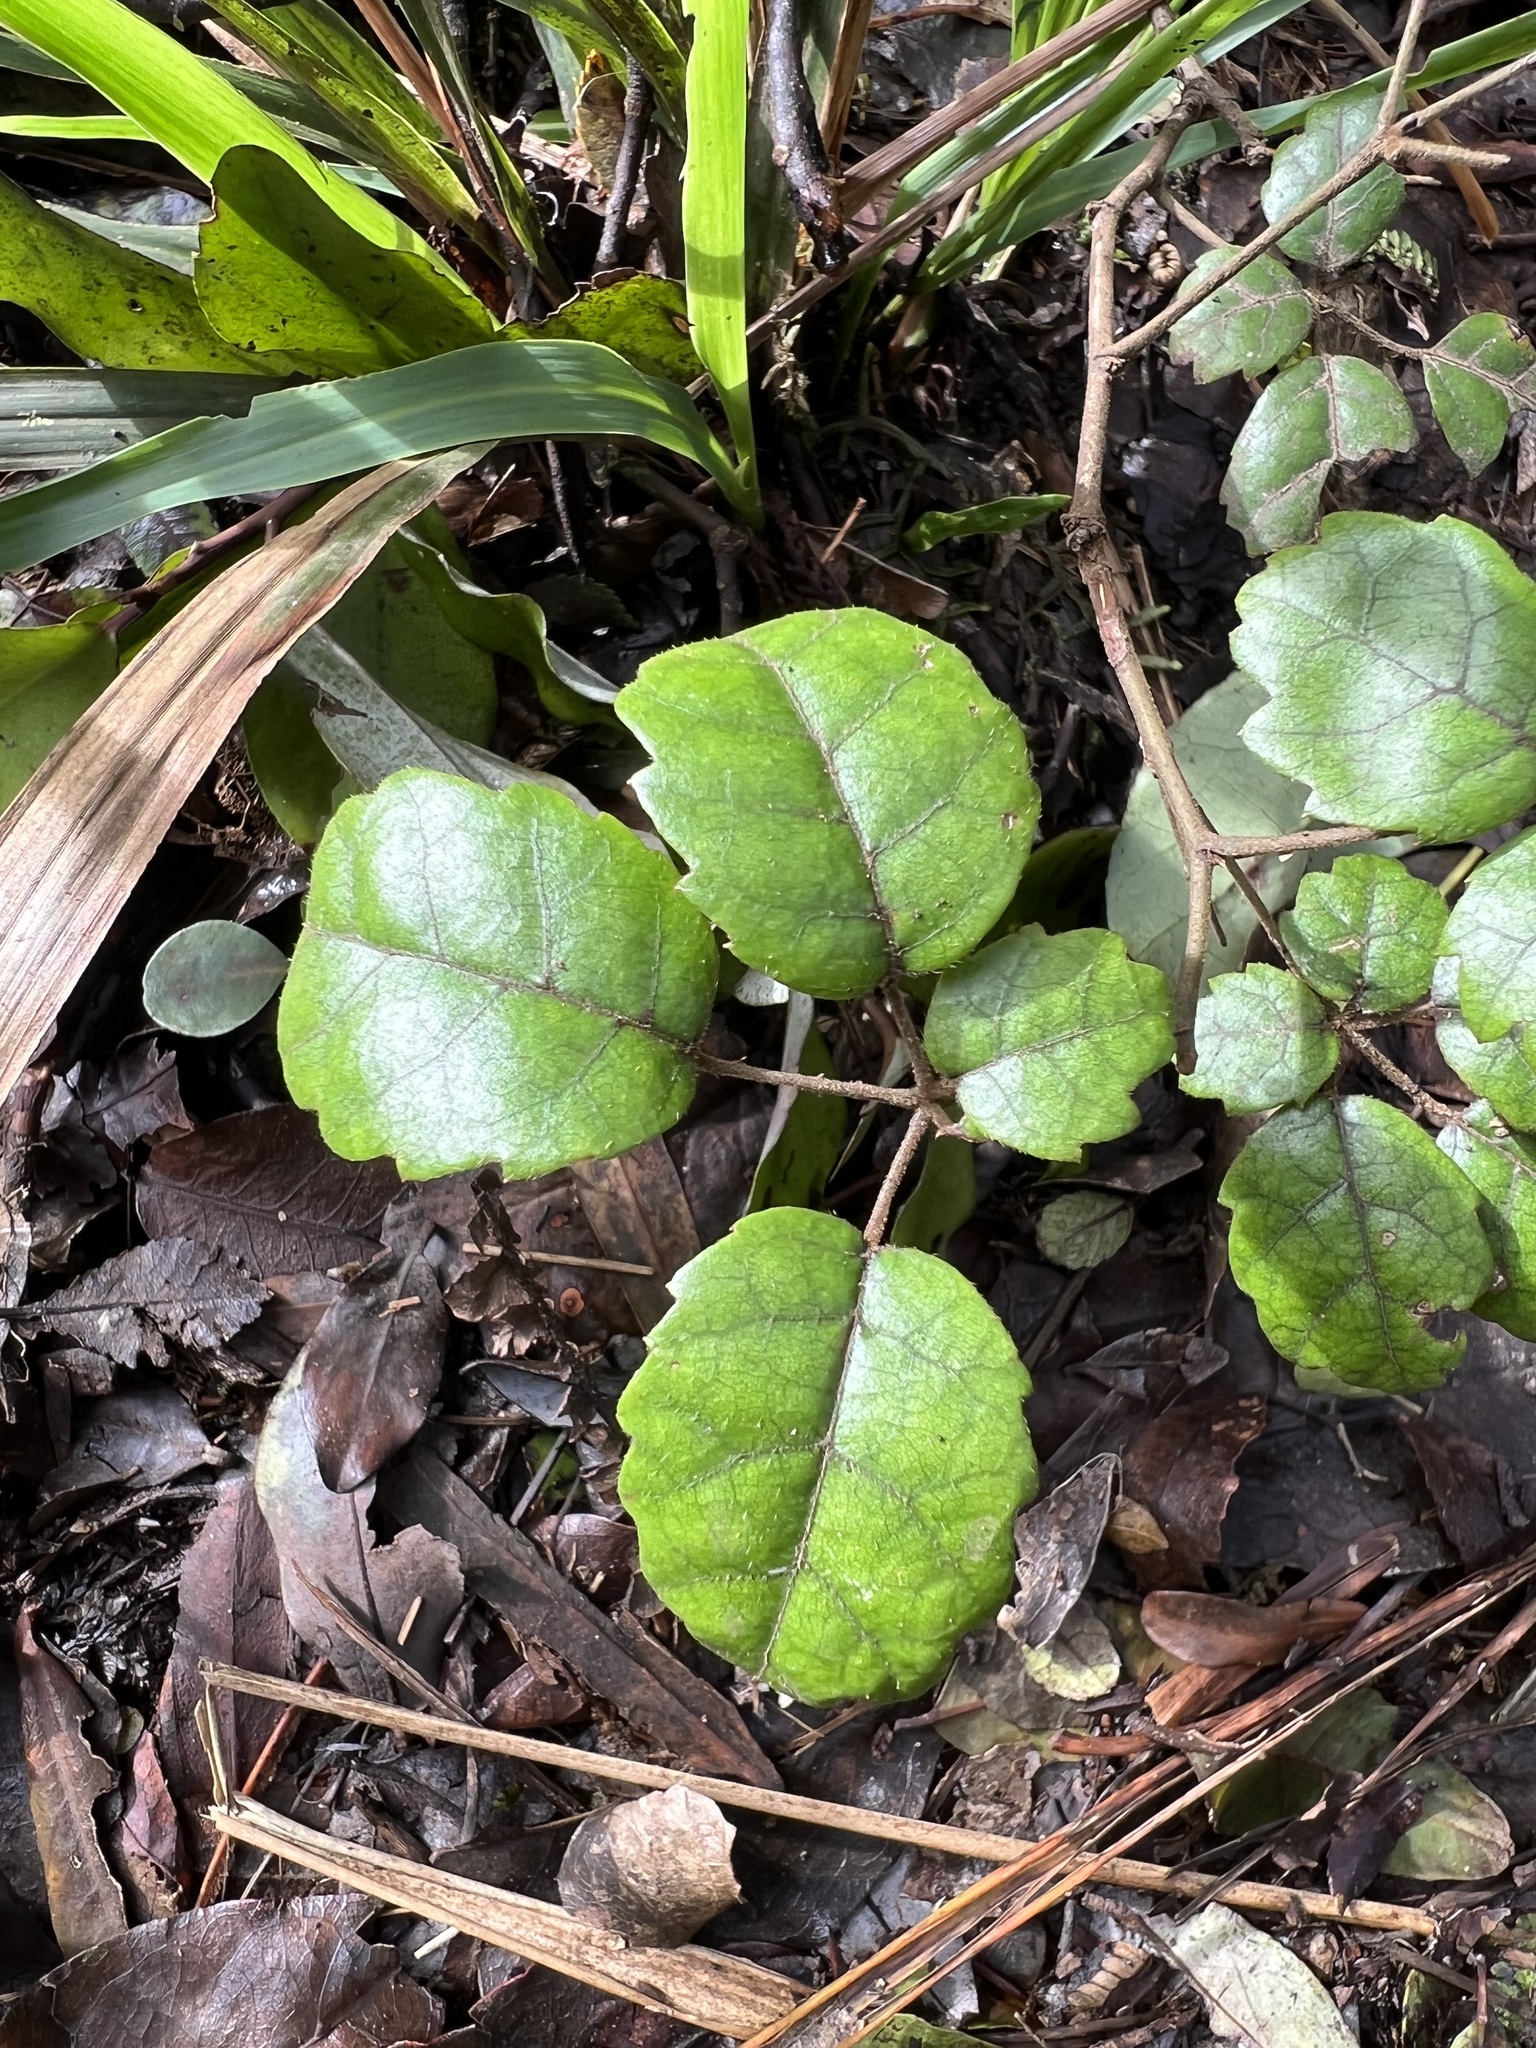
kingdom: Plantae
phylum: Tracheophyta
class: Magnoliopsida
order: Rosales
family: Rosaceae
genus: Rubus
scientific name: Rubus australis
